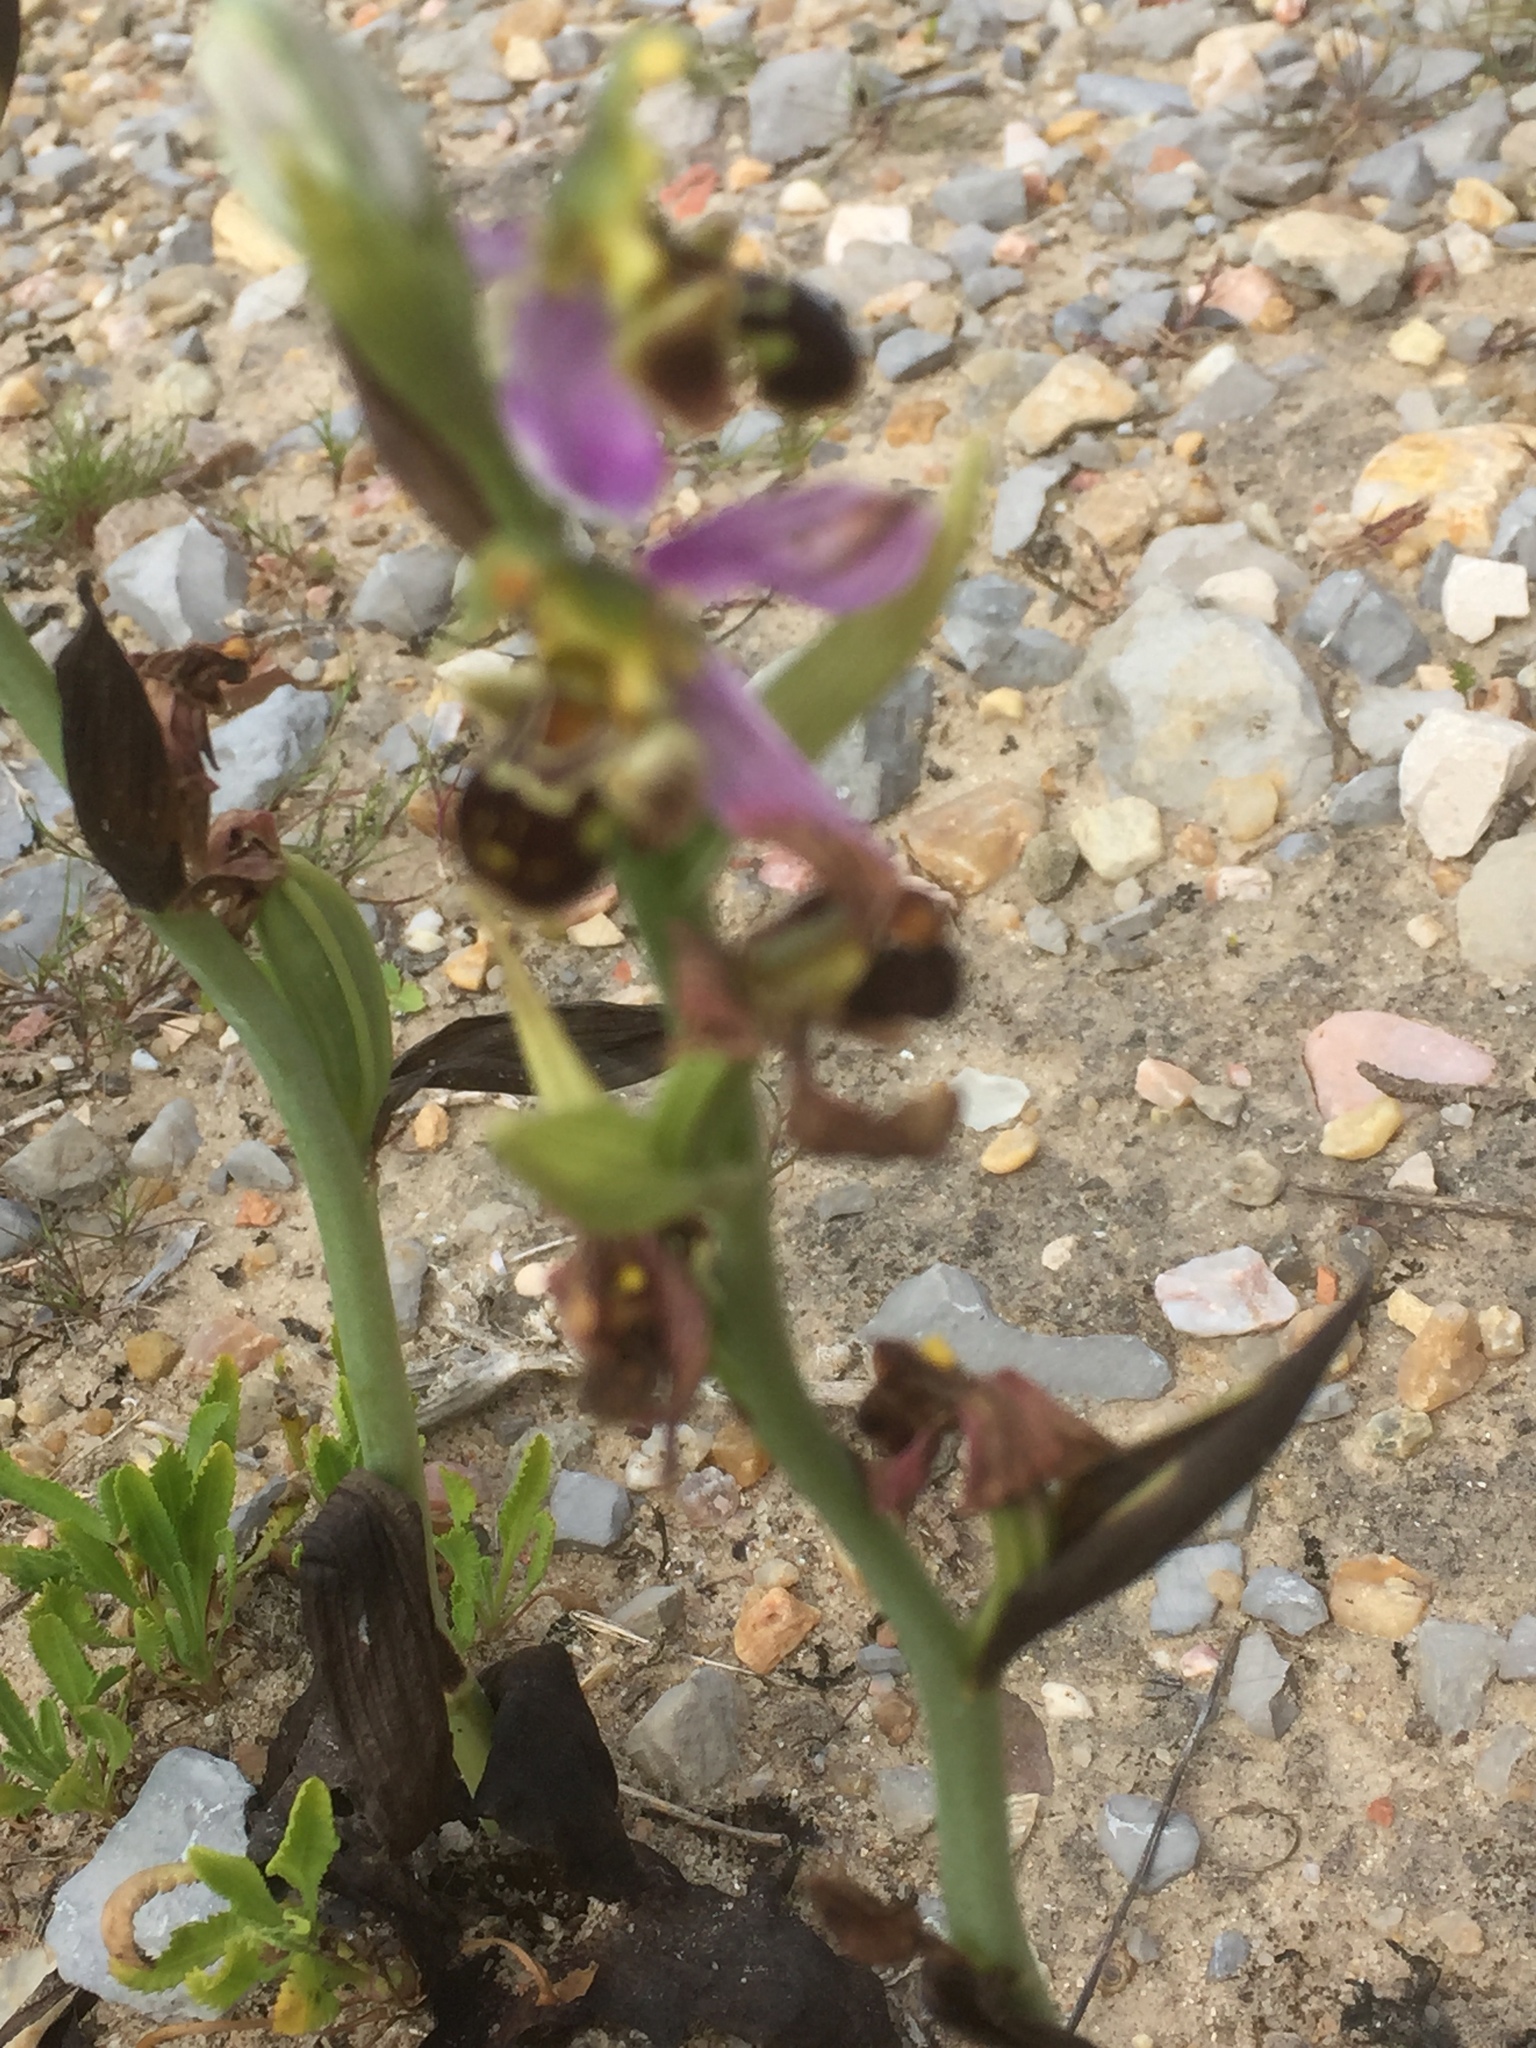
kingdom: Plantae
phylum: Tracheophyta
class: Liliopsida
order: Asparagales
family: Orchidaceae
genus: Ophrys
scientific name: Ophrys apifera
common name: Bee orchid
